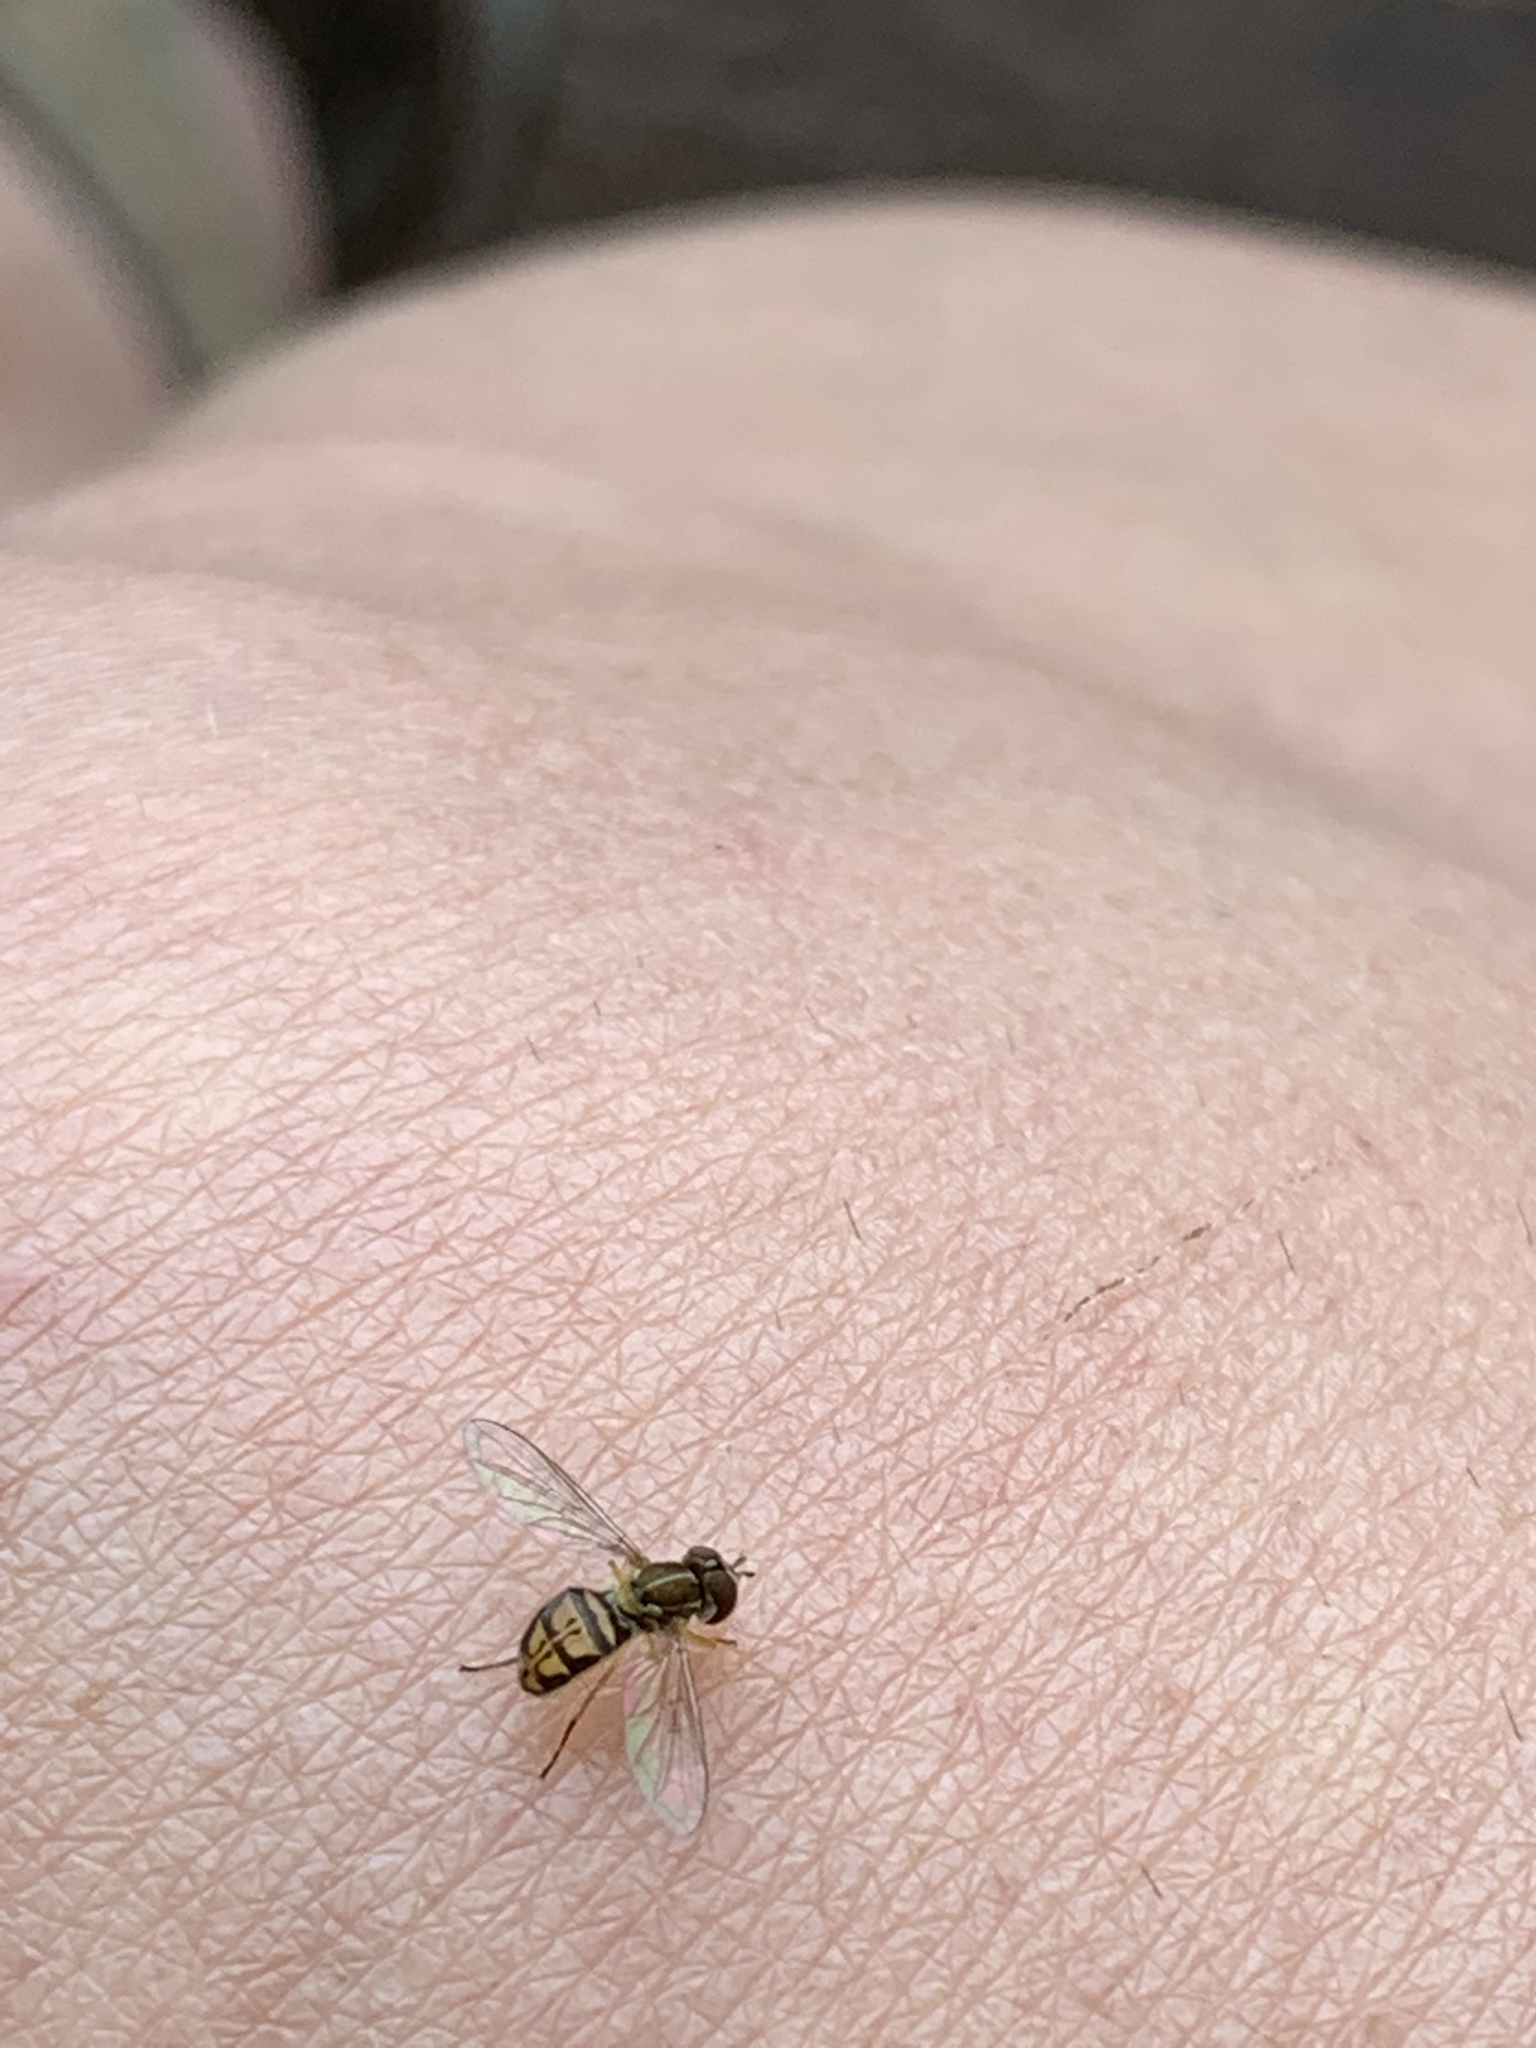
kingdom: Animalia
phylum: Arthropoda
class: Insecta
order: Diptera
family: Syrphidae
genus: Toxomerus
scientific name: Toxomerus marginatus
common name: Syrphid fly
